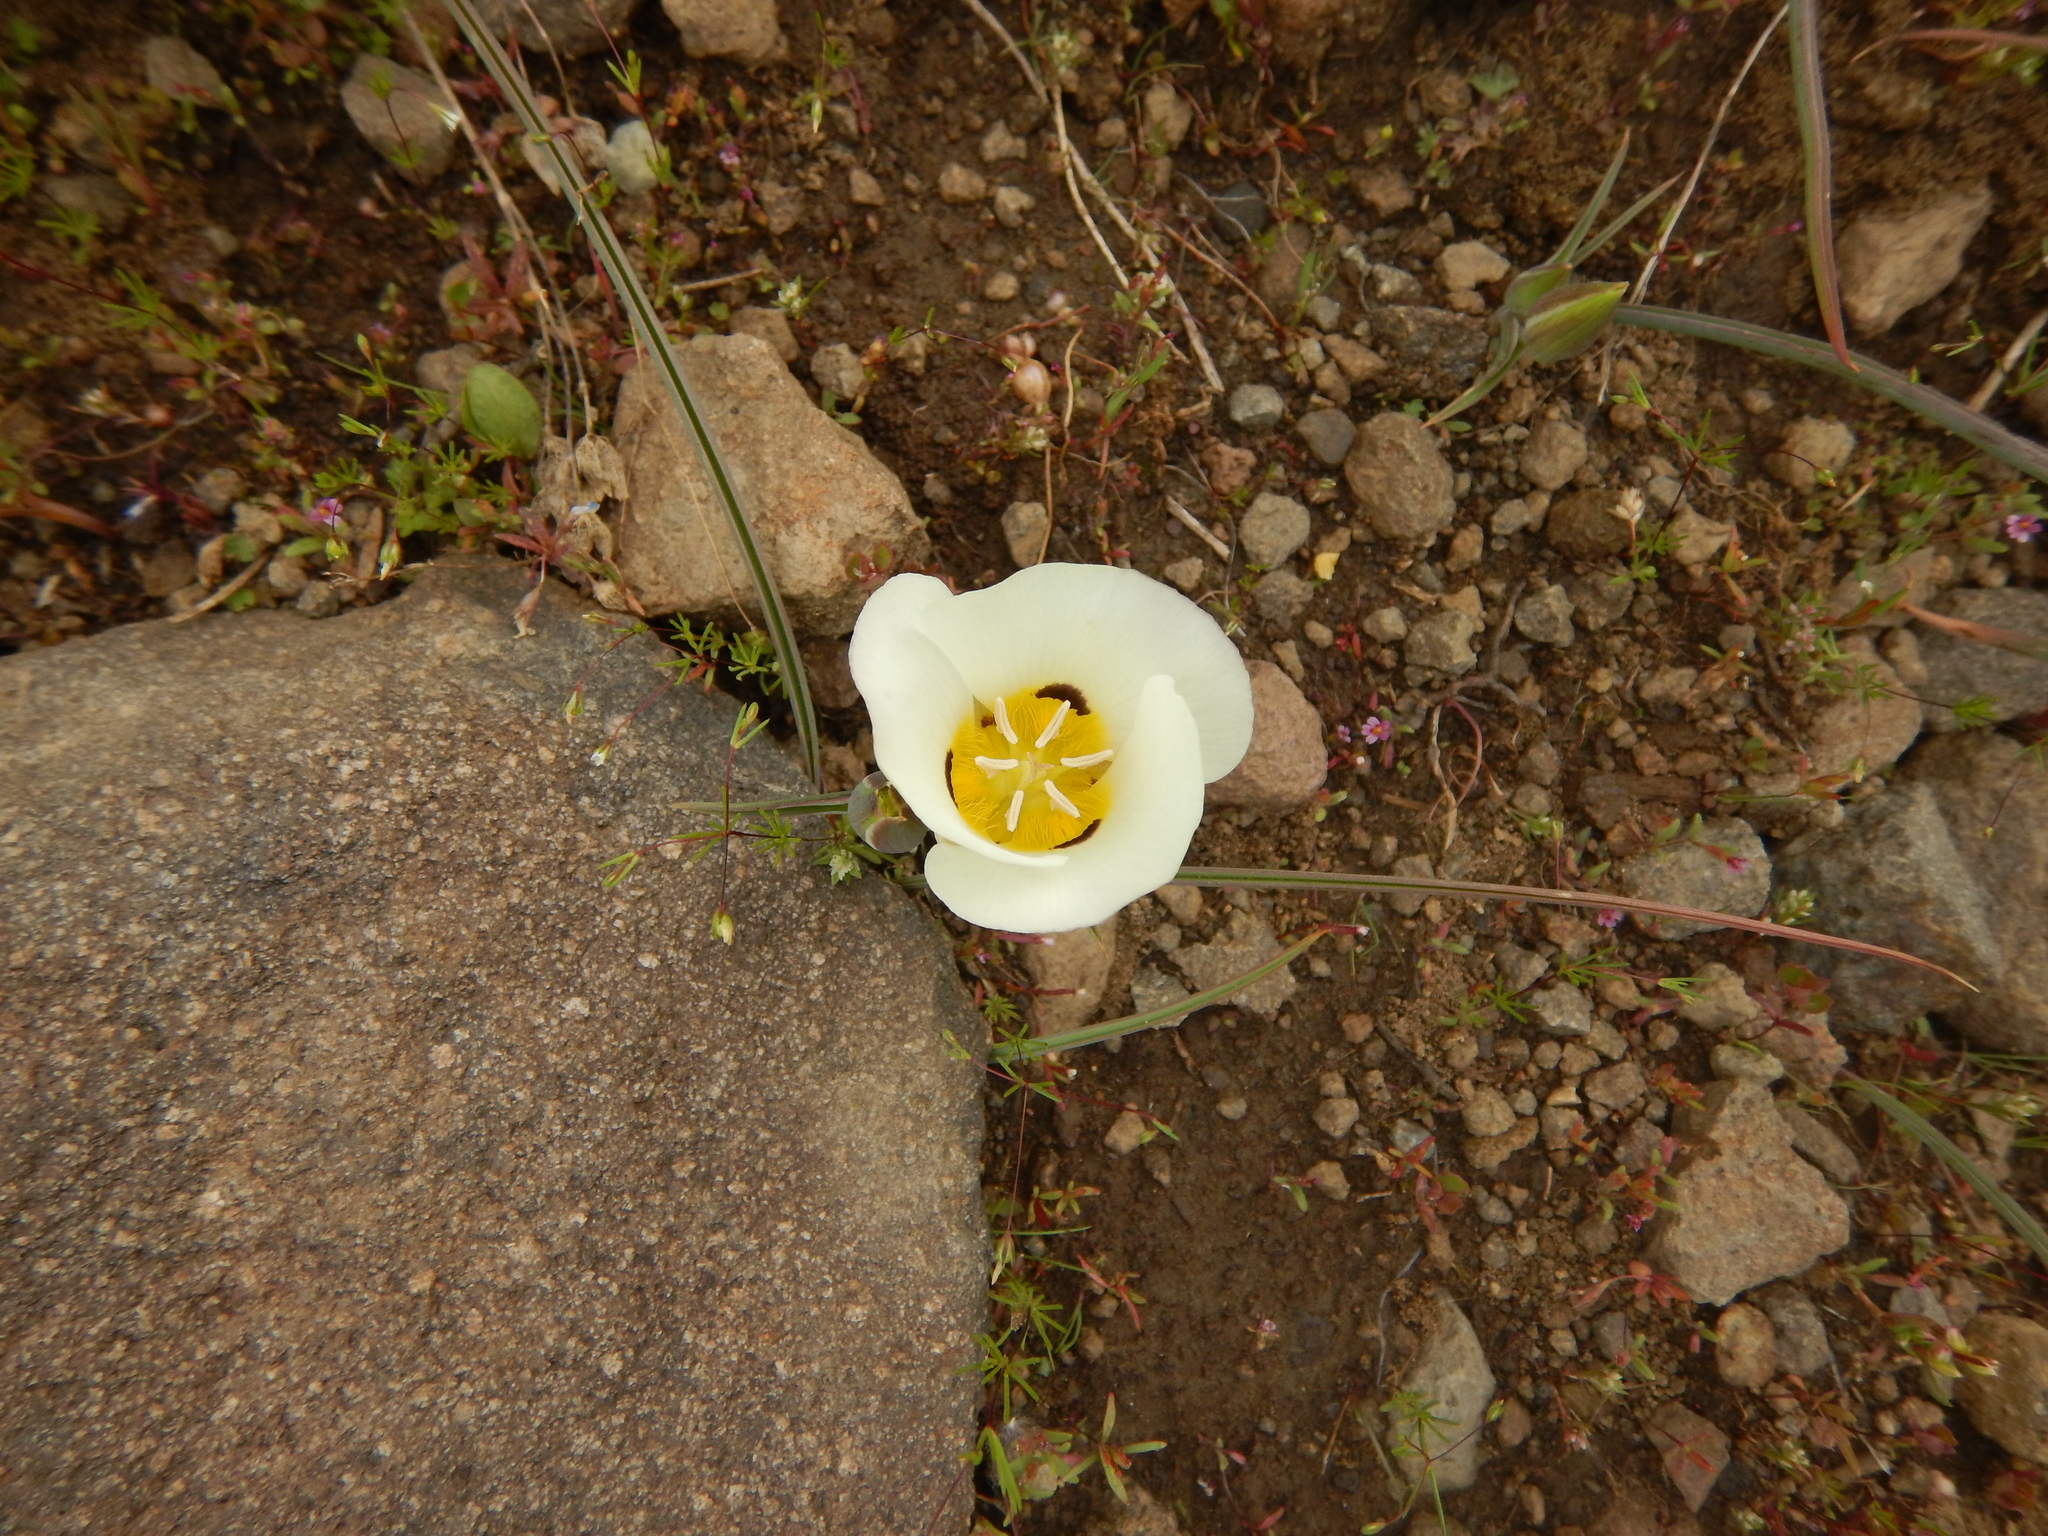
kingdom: Plantae
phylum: Tracheophyta
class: Liliopsida
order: Liliales
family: Liliaceae
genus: Calochortus
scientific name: Calochortus leichtlinii
